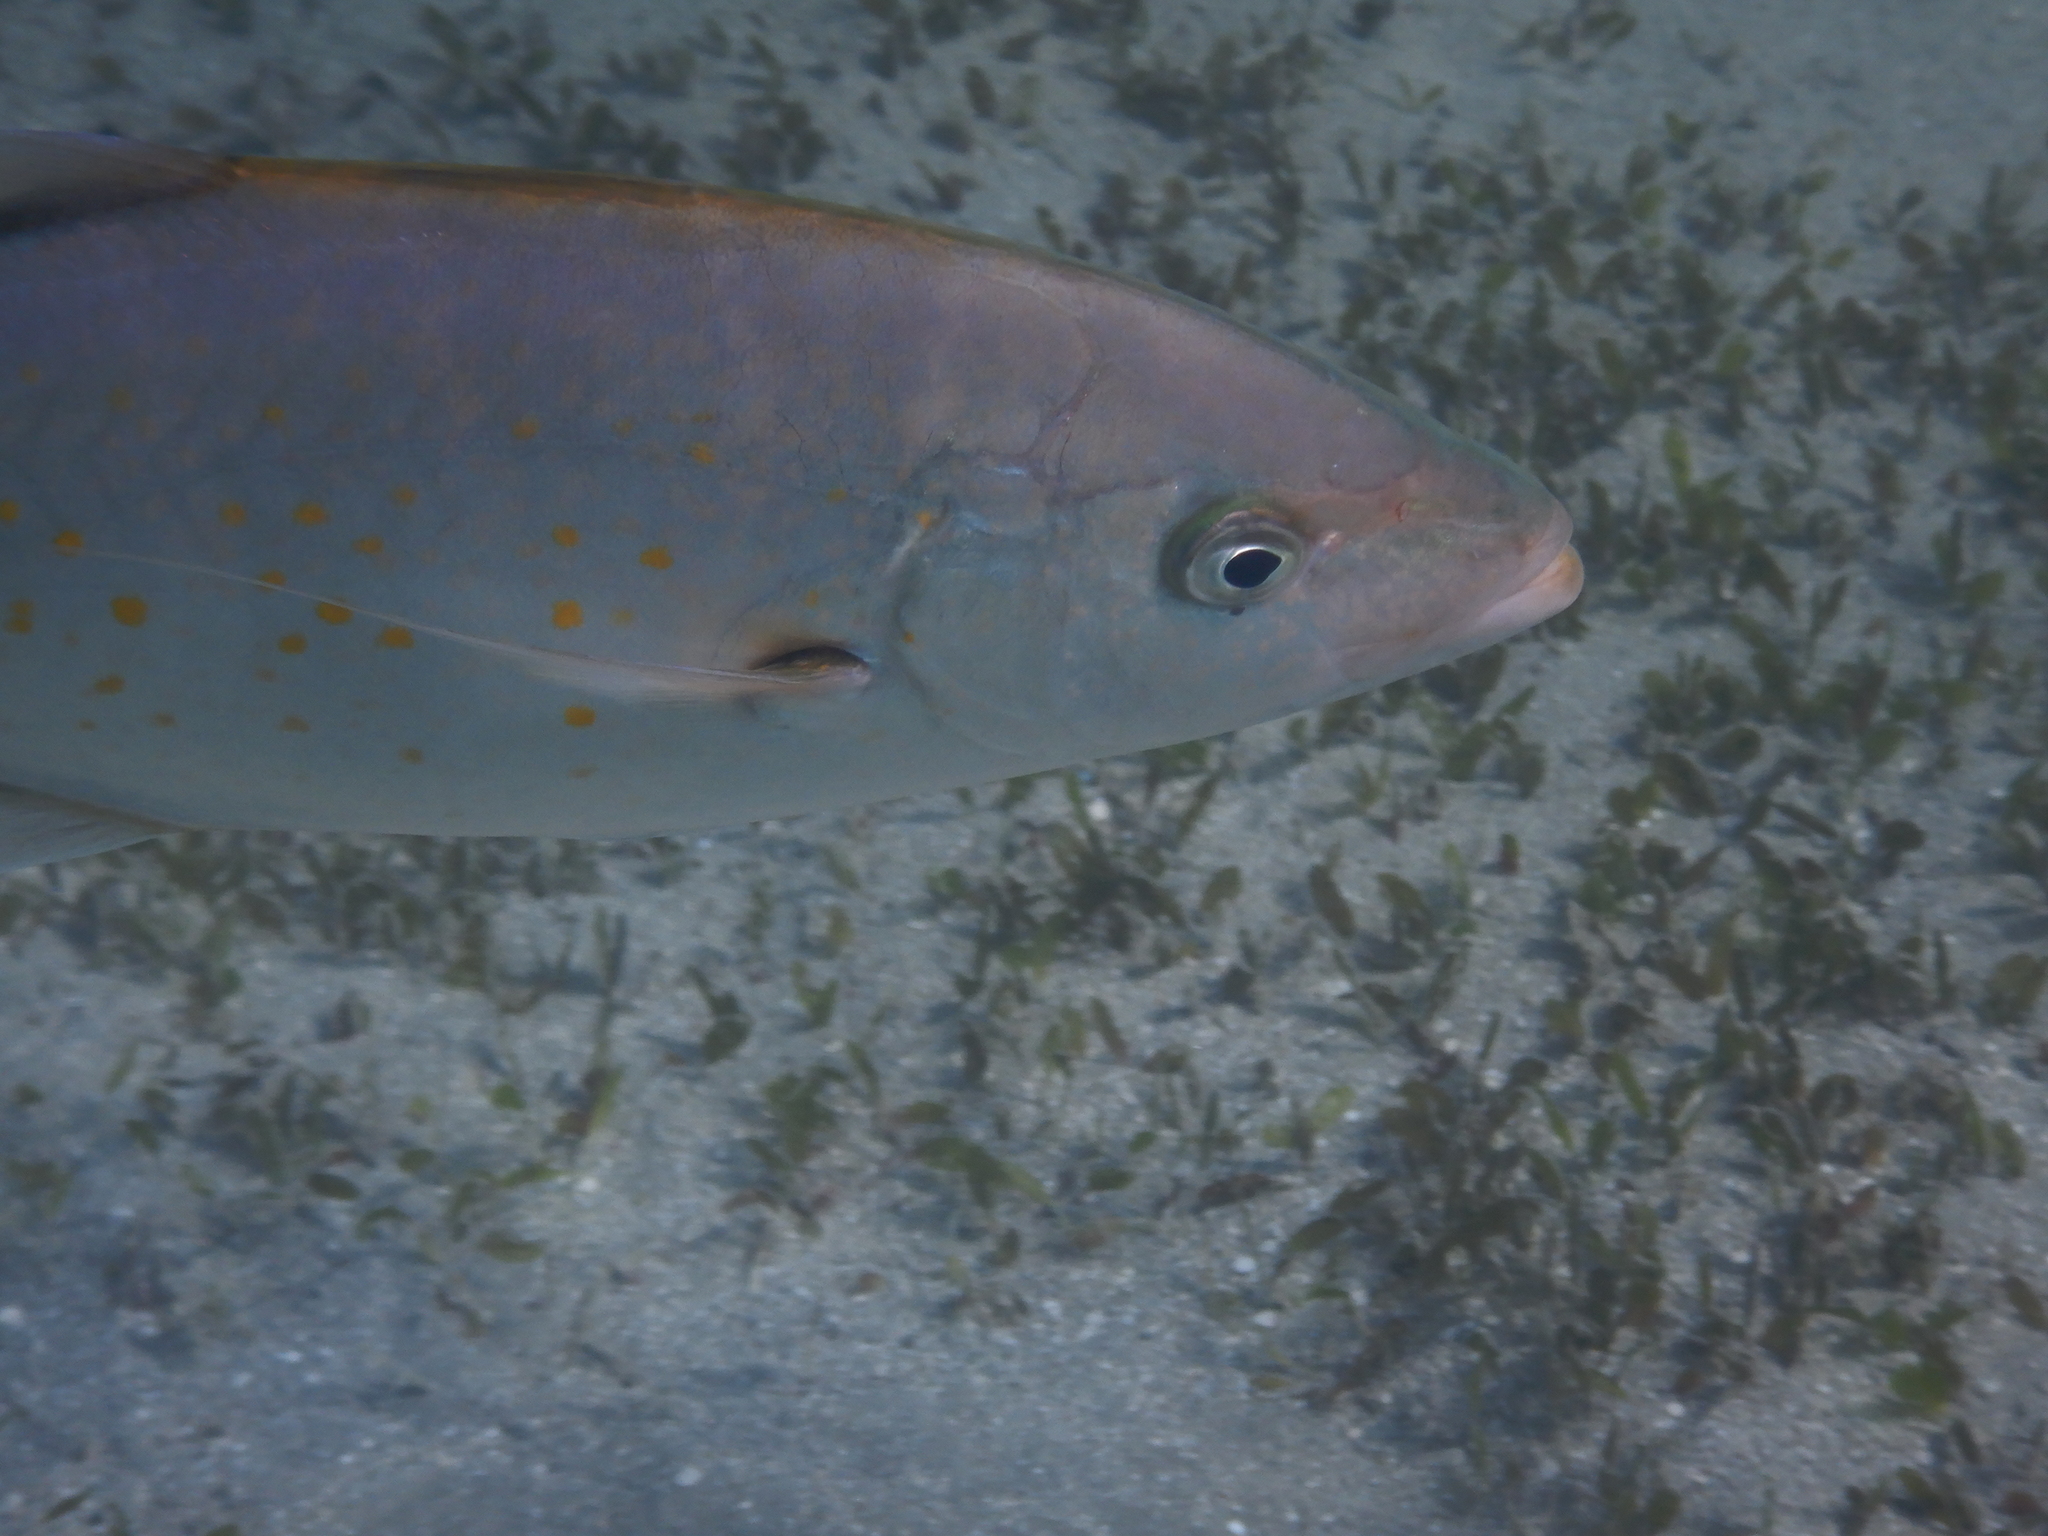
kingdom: Animalia
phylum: Chordata
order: Perciformes
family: Carangidae
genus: Flavocaranx
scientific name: Flavocaranx bajad
